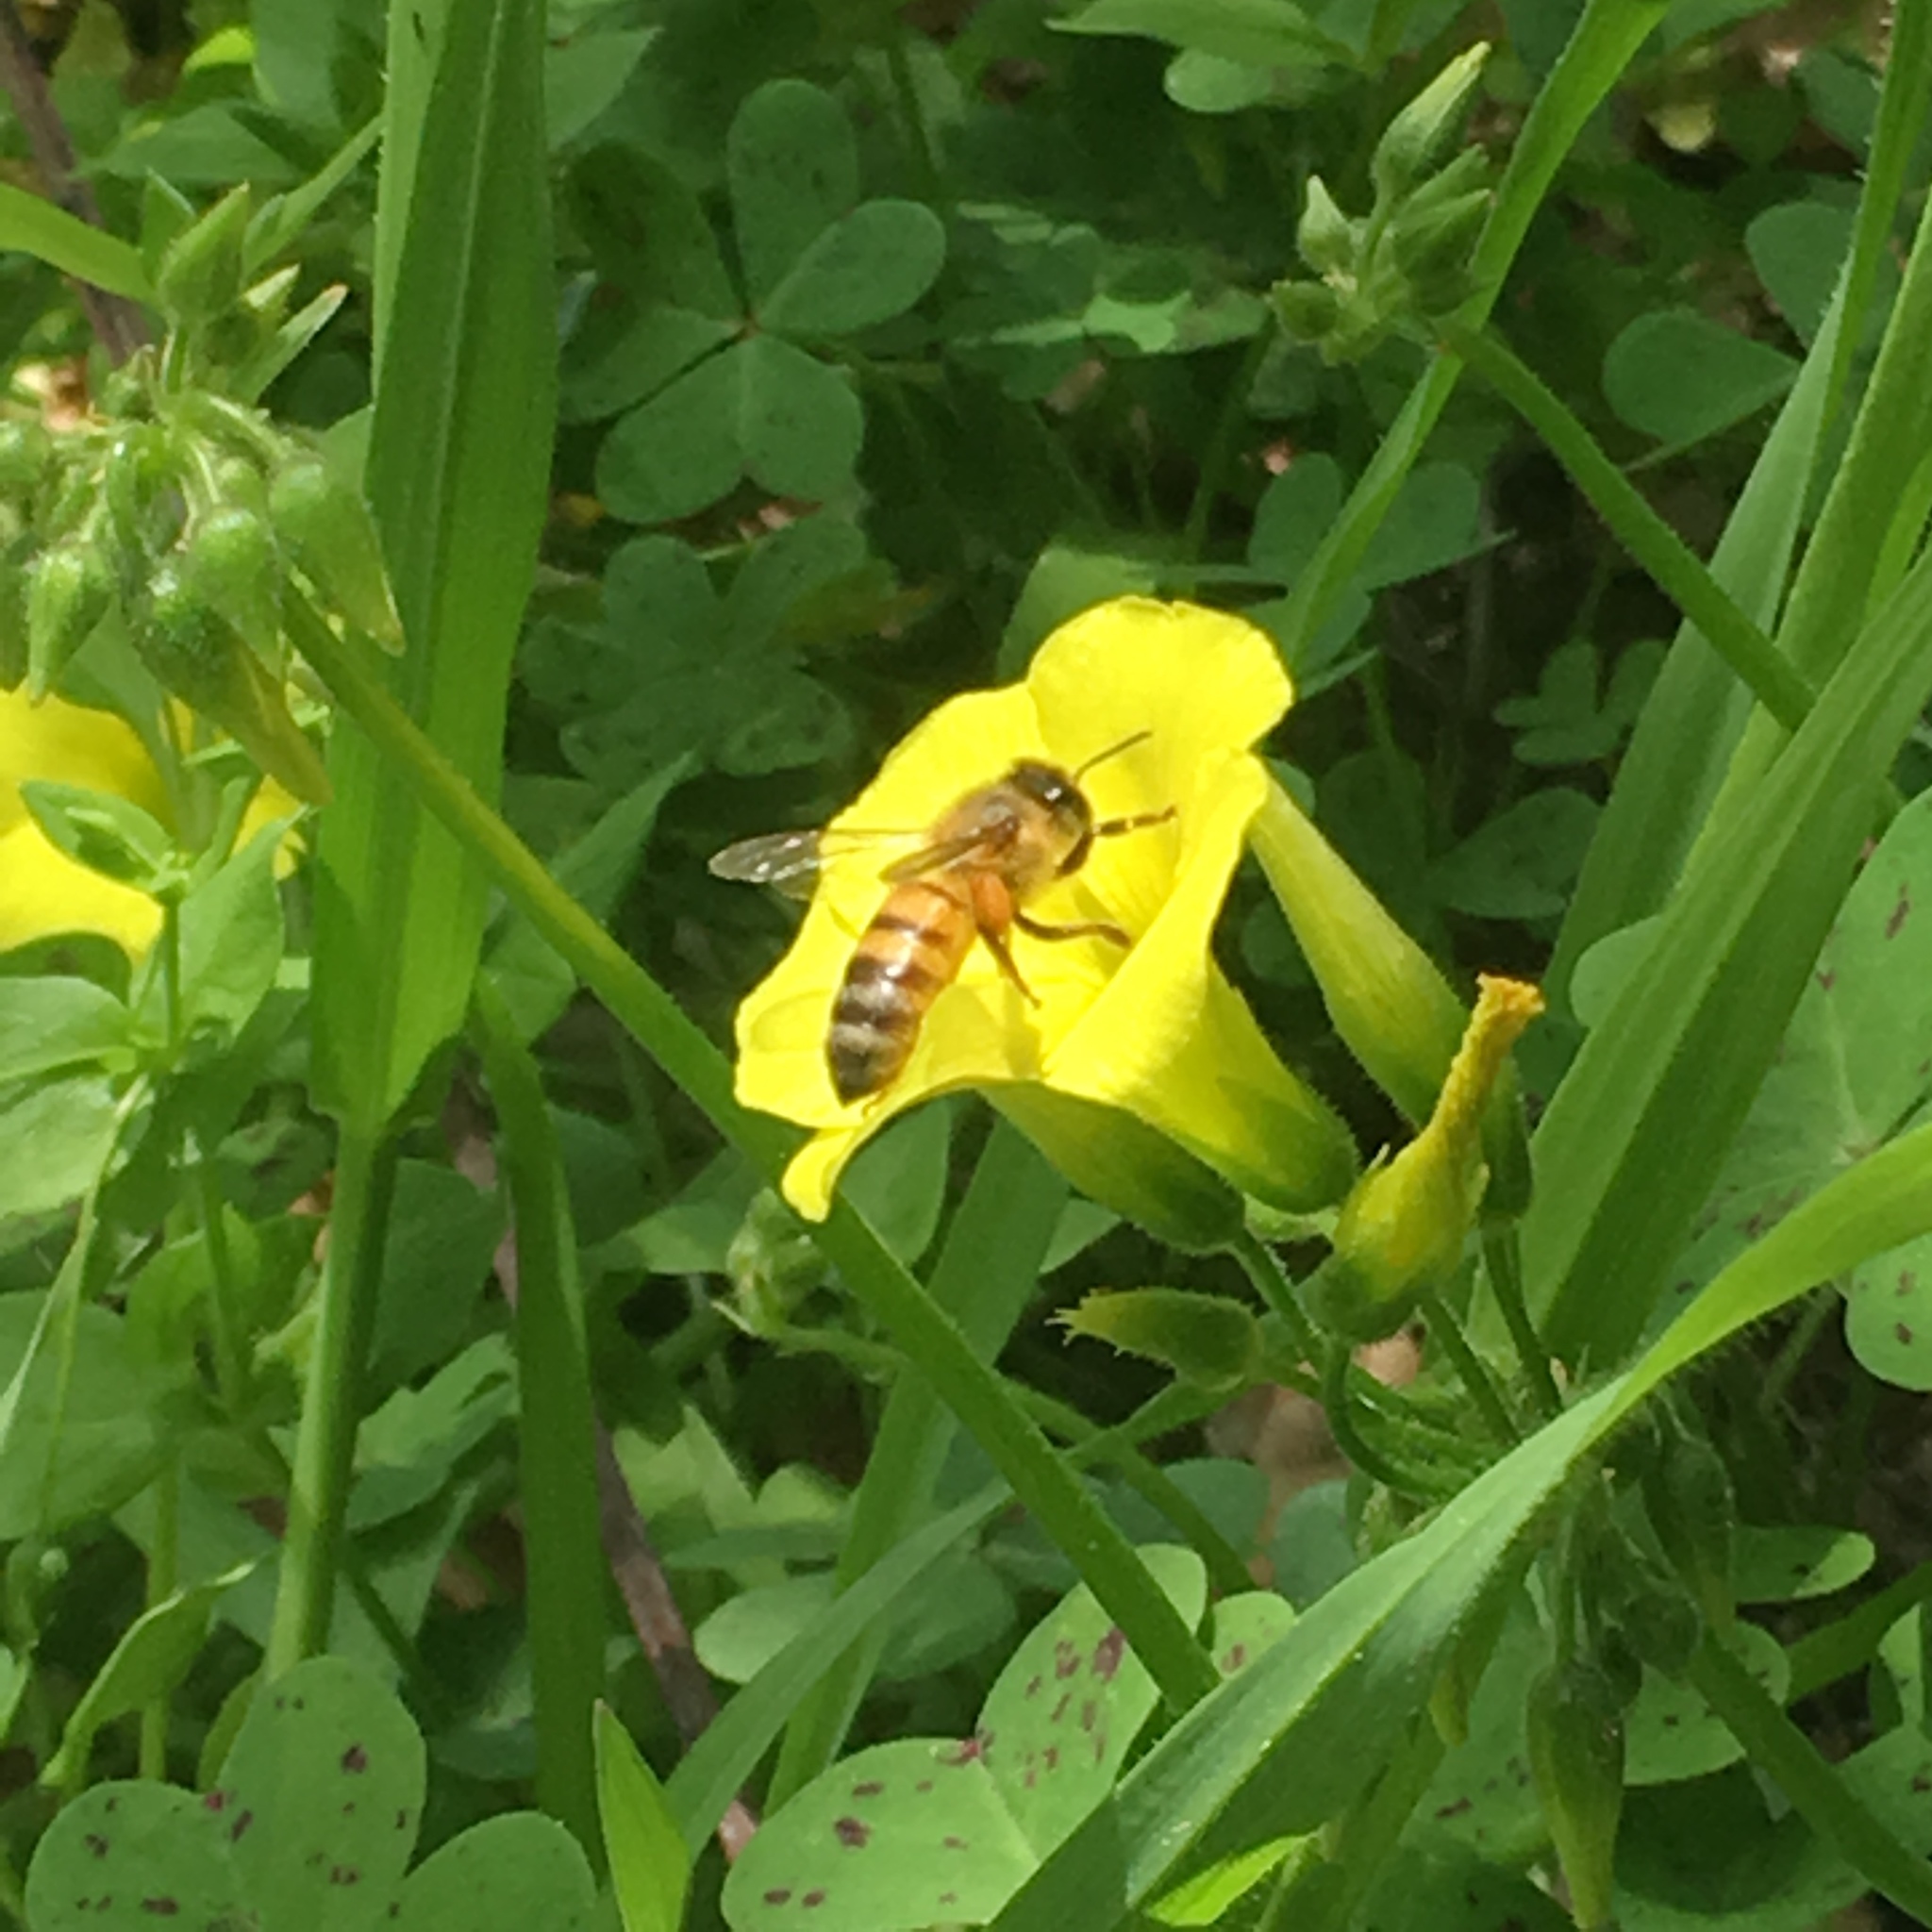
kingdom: Animalia
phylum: Arthropoda
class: Insecta
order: Hymenoptera
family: Apidae
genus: Apis
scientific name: Apis mellifera
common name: Honey bee
